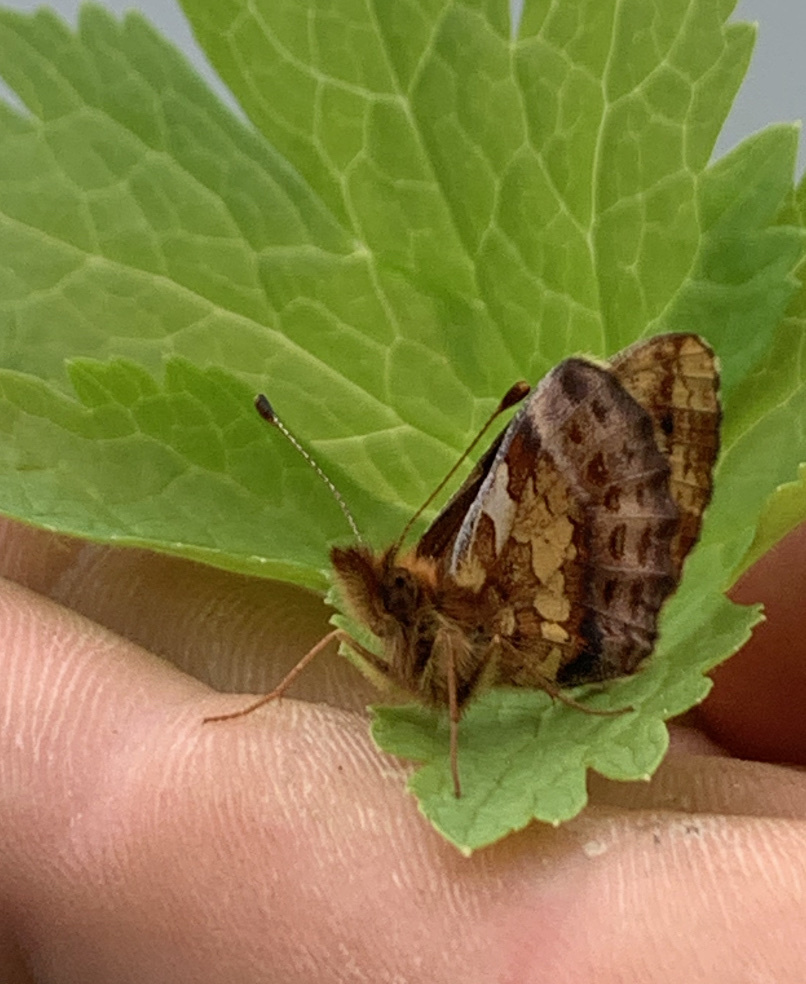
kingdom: Animalia
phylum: Arthropoda
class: Insecta
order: Lepidoptera
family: Nymphalidae
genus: Boloria
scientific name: Boloria epithore
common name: Pacific fritillary
